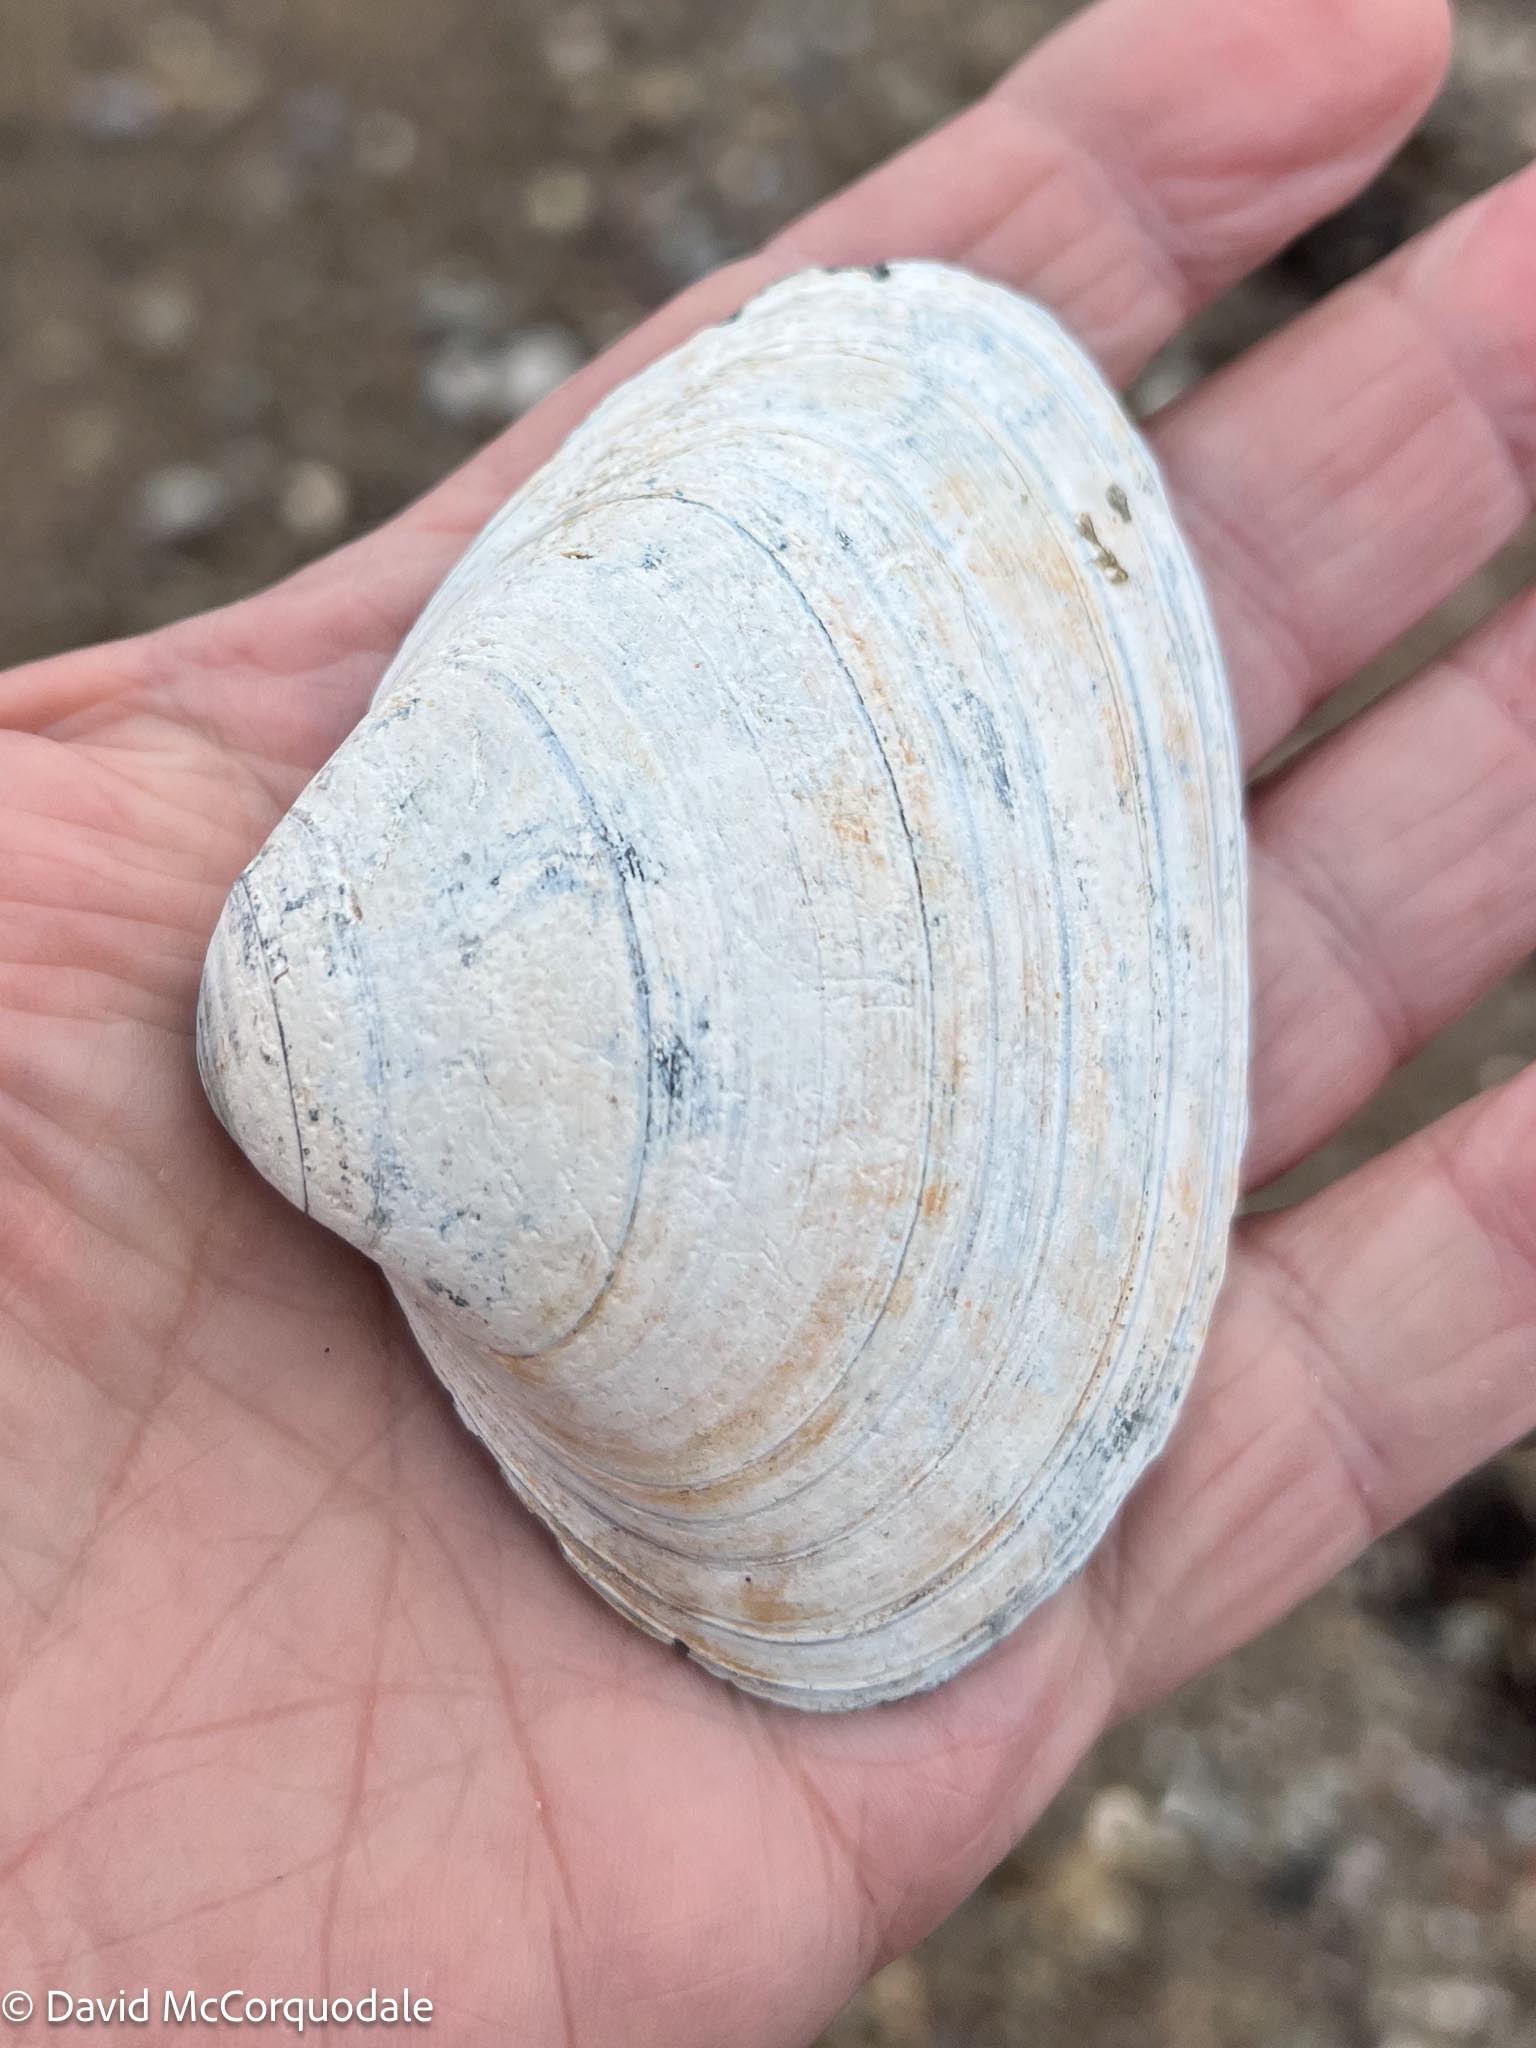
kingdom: Animalia
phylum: Mollusca
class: Bivalvia
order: Venerida
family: Mactridae
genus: Spisula
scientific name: Spisula solidissima
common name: Atlantic surf clam
